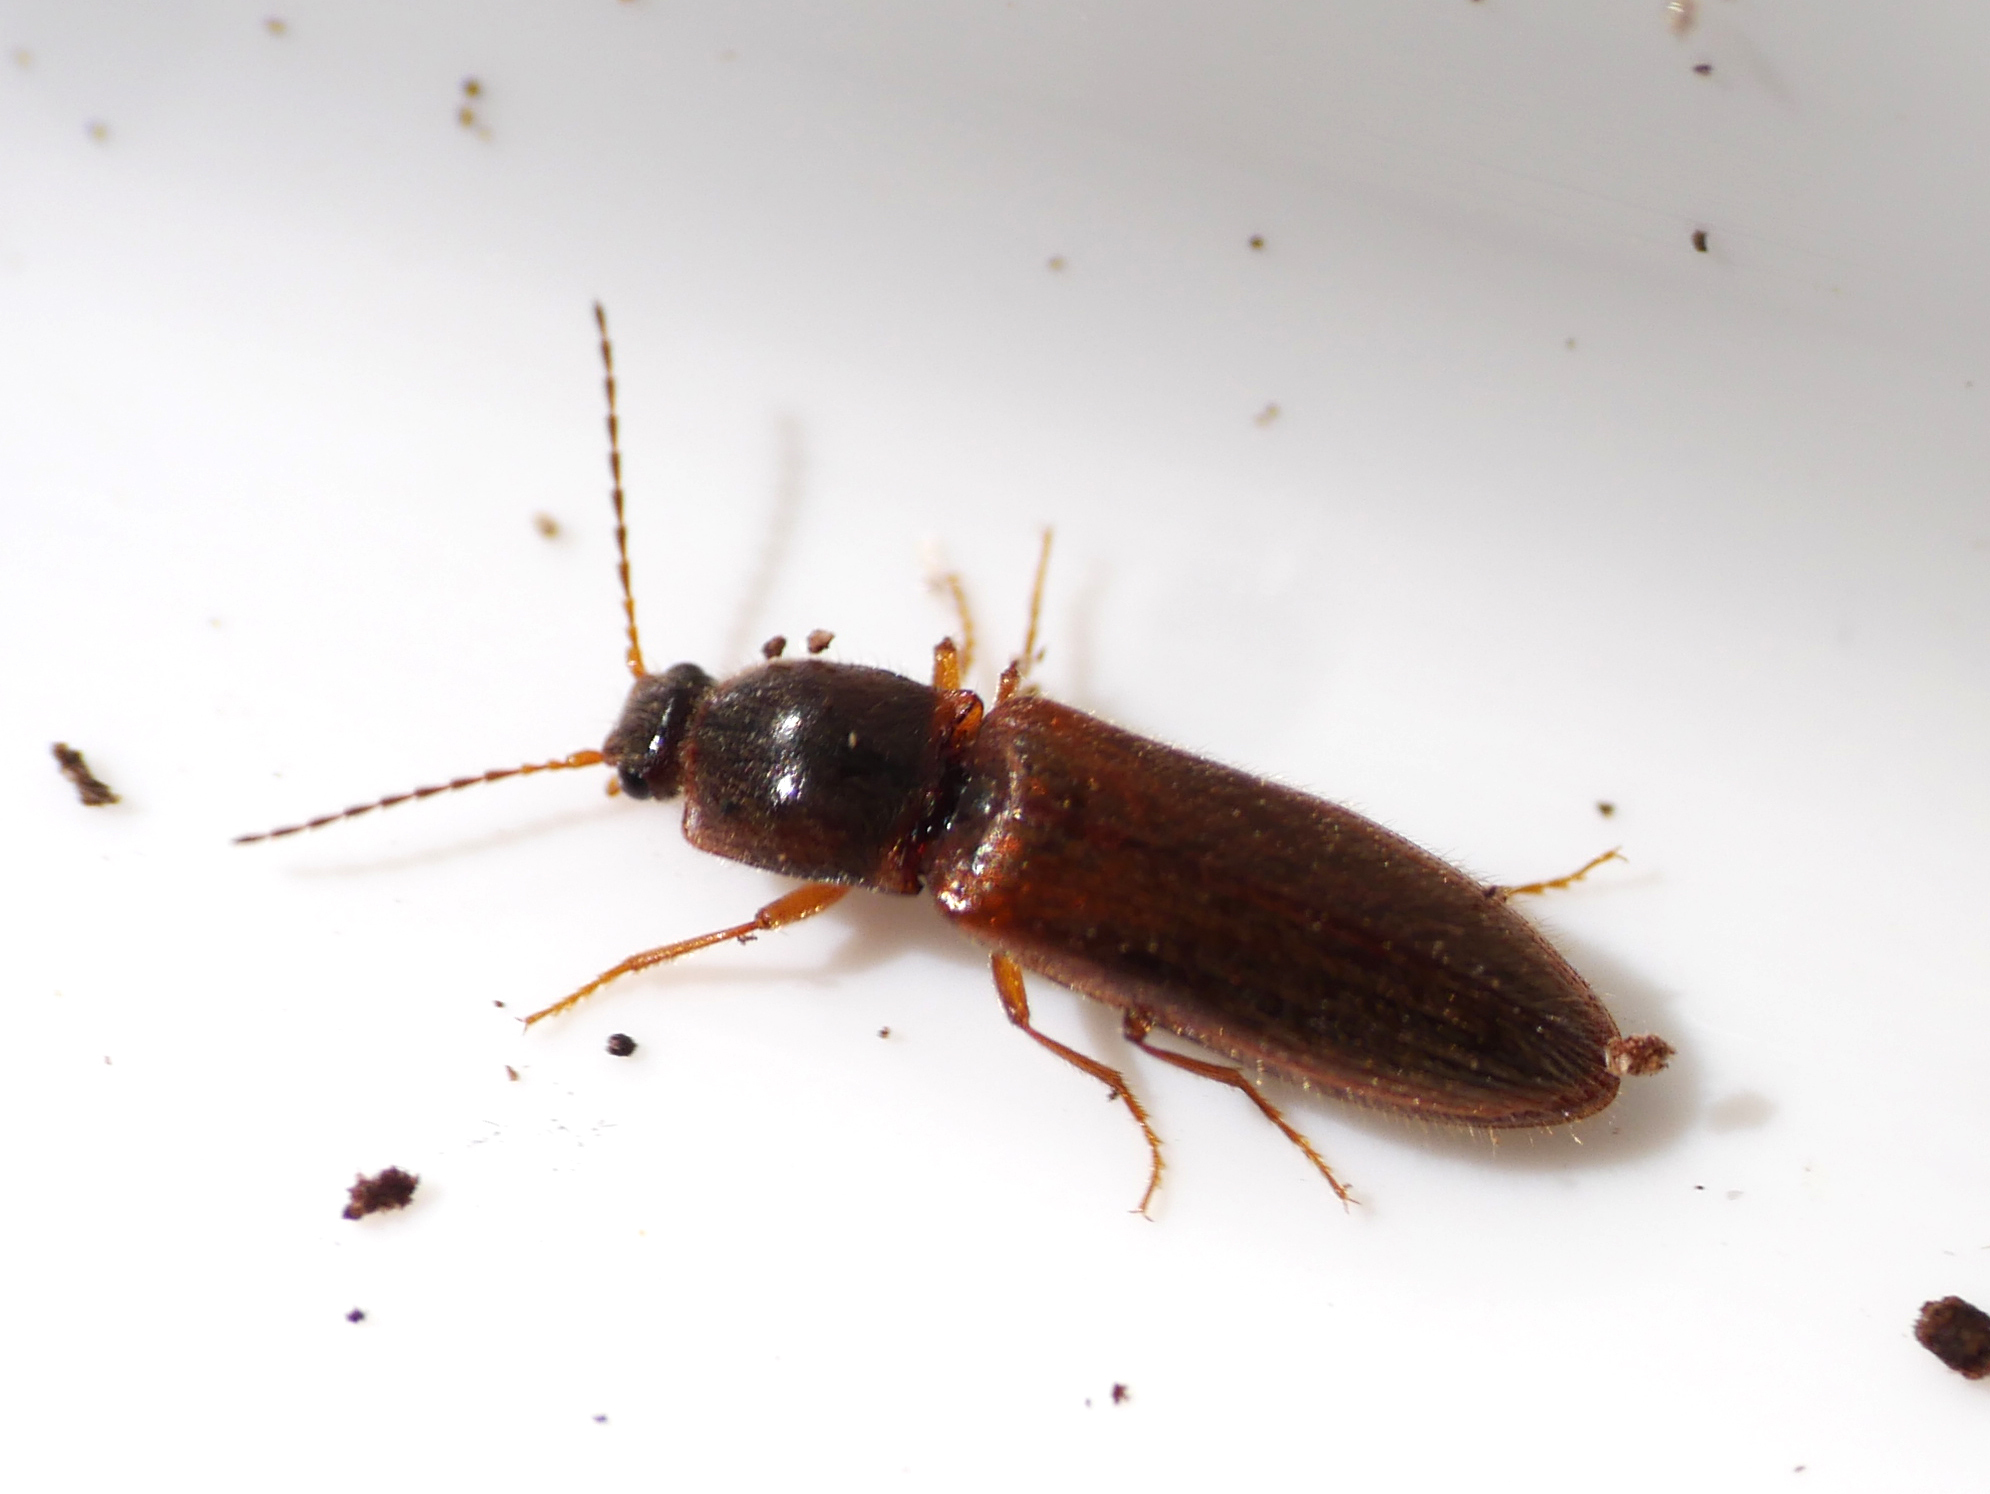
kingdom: Animalia
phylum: Arthropoda
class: Insecta
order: Coleoptera
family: Elateridae
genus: Athous
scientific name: Athous subfuscus
